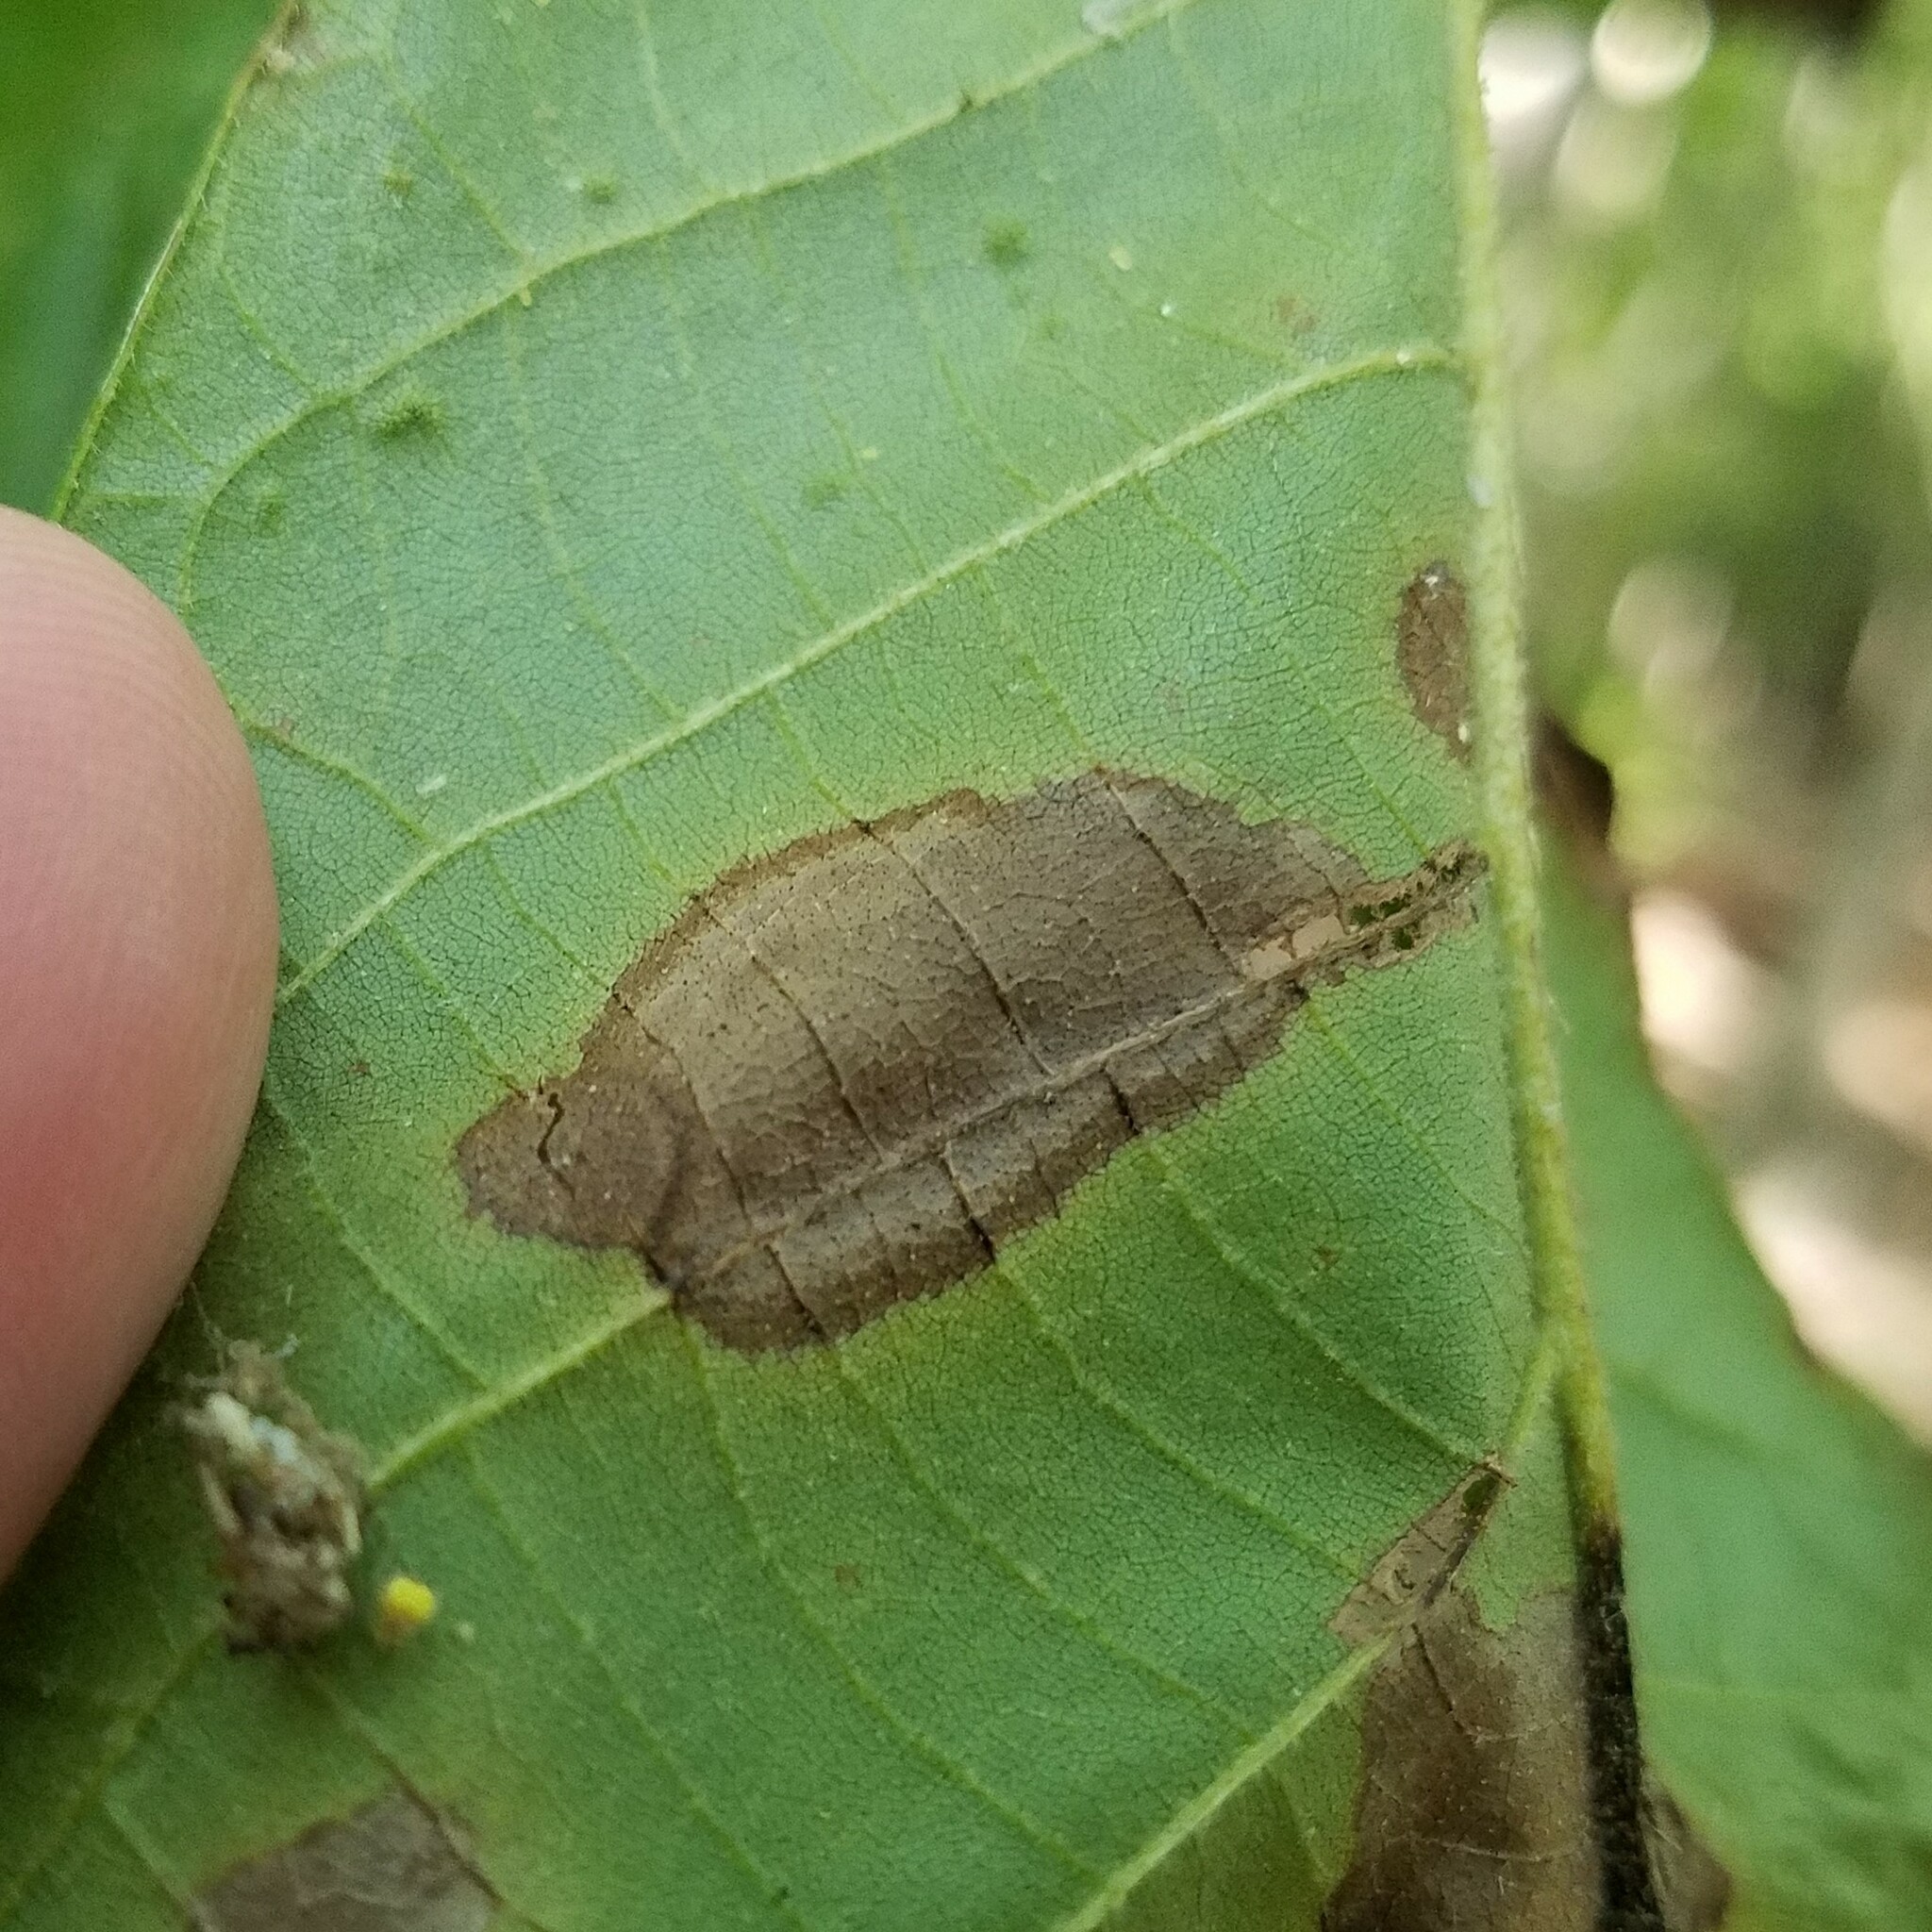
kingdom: Animalia
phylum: Arthropoda
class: Insecta
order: Diptera
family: Cecidomyiidae
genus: Caryomyia
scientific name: Caryomyia urnula
